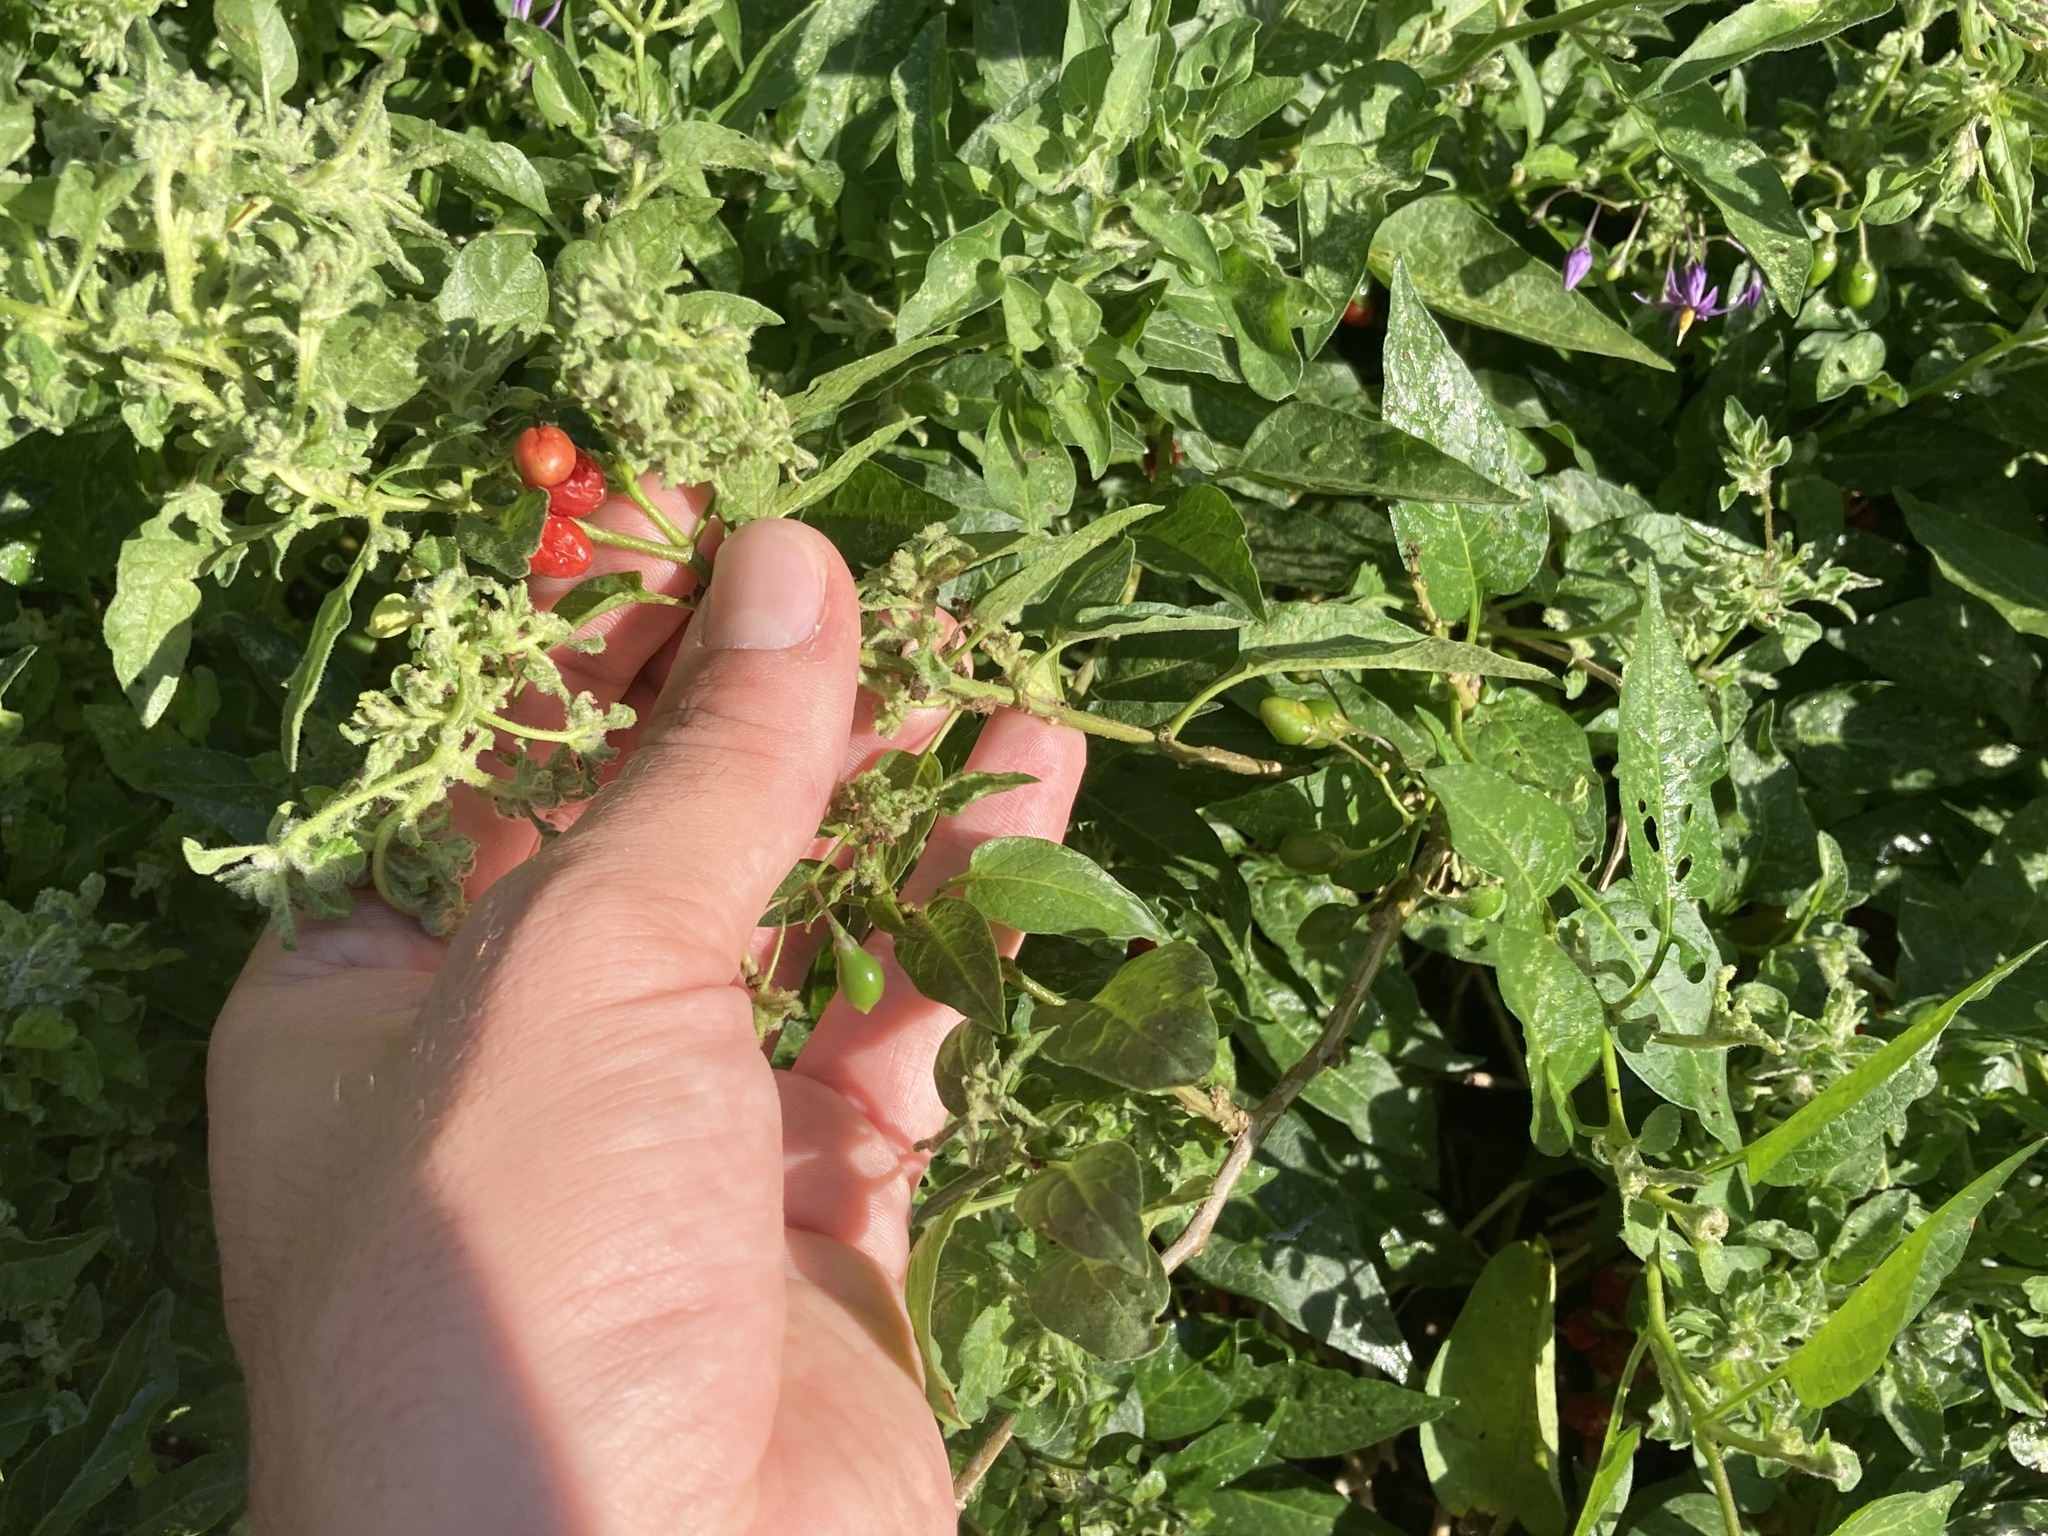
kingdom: Plantae
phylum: Tracheophyta
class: Magnoliopsida
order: Solanales
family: Solanaceae
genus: Solanum
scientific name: Solanum dulcamara
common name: Climbing nightshade
